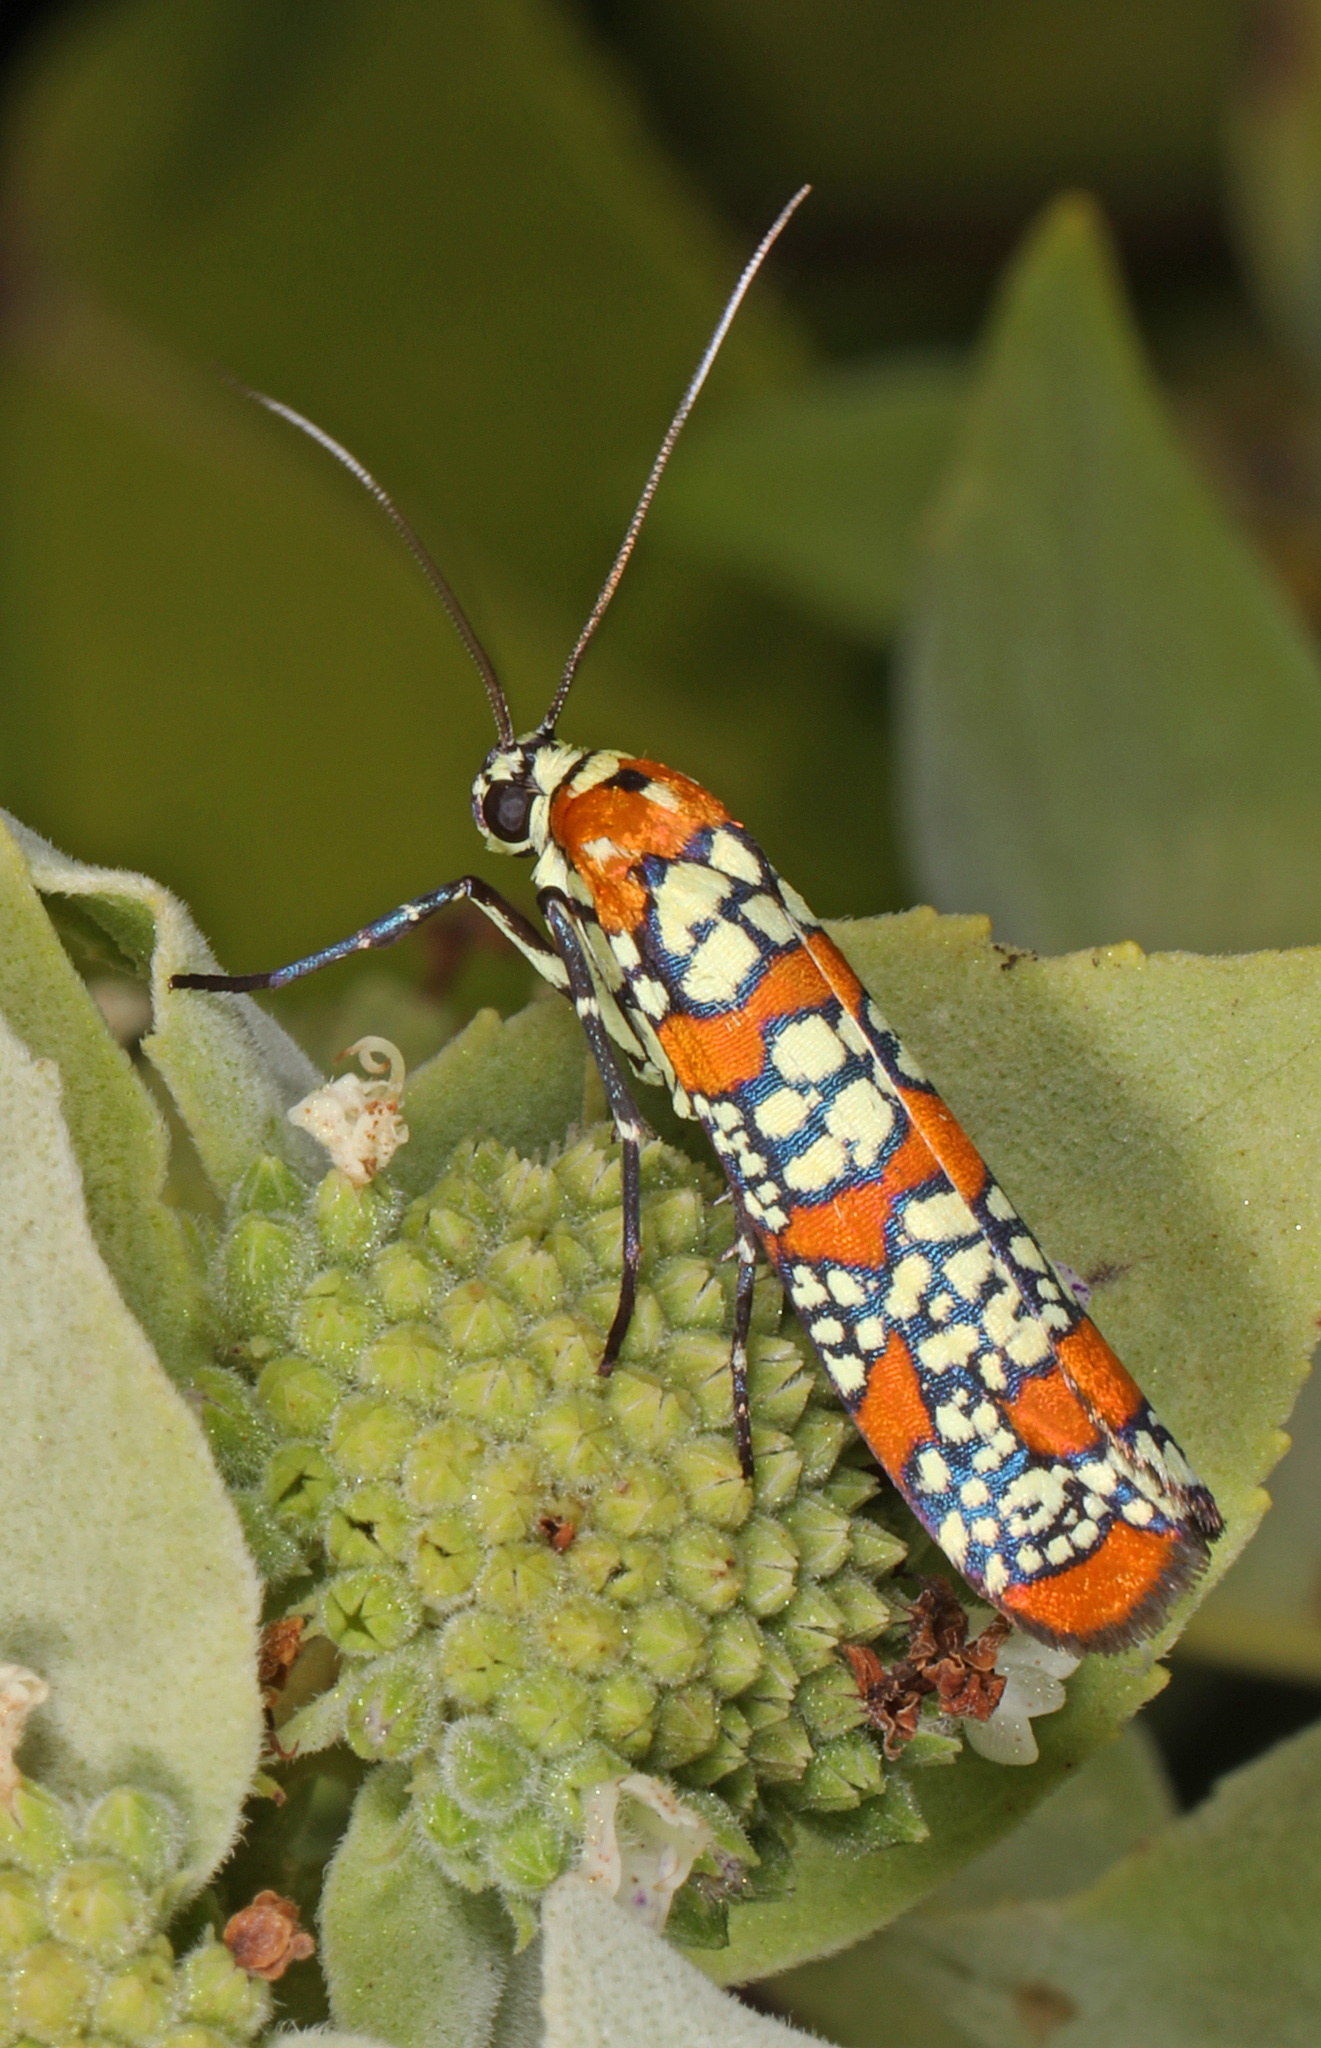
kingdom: Animalia
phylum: Arthropoda
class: Insecta
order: Lepidoptera
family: Attevidae
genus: Atteva
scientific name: Atteva punctella
